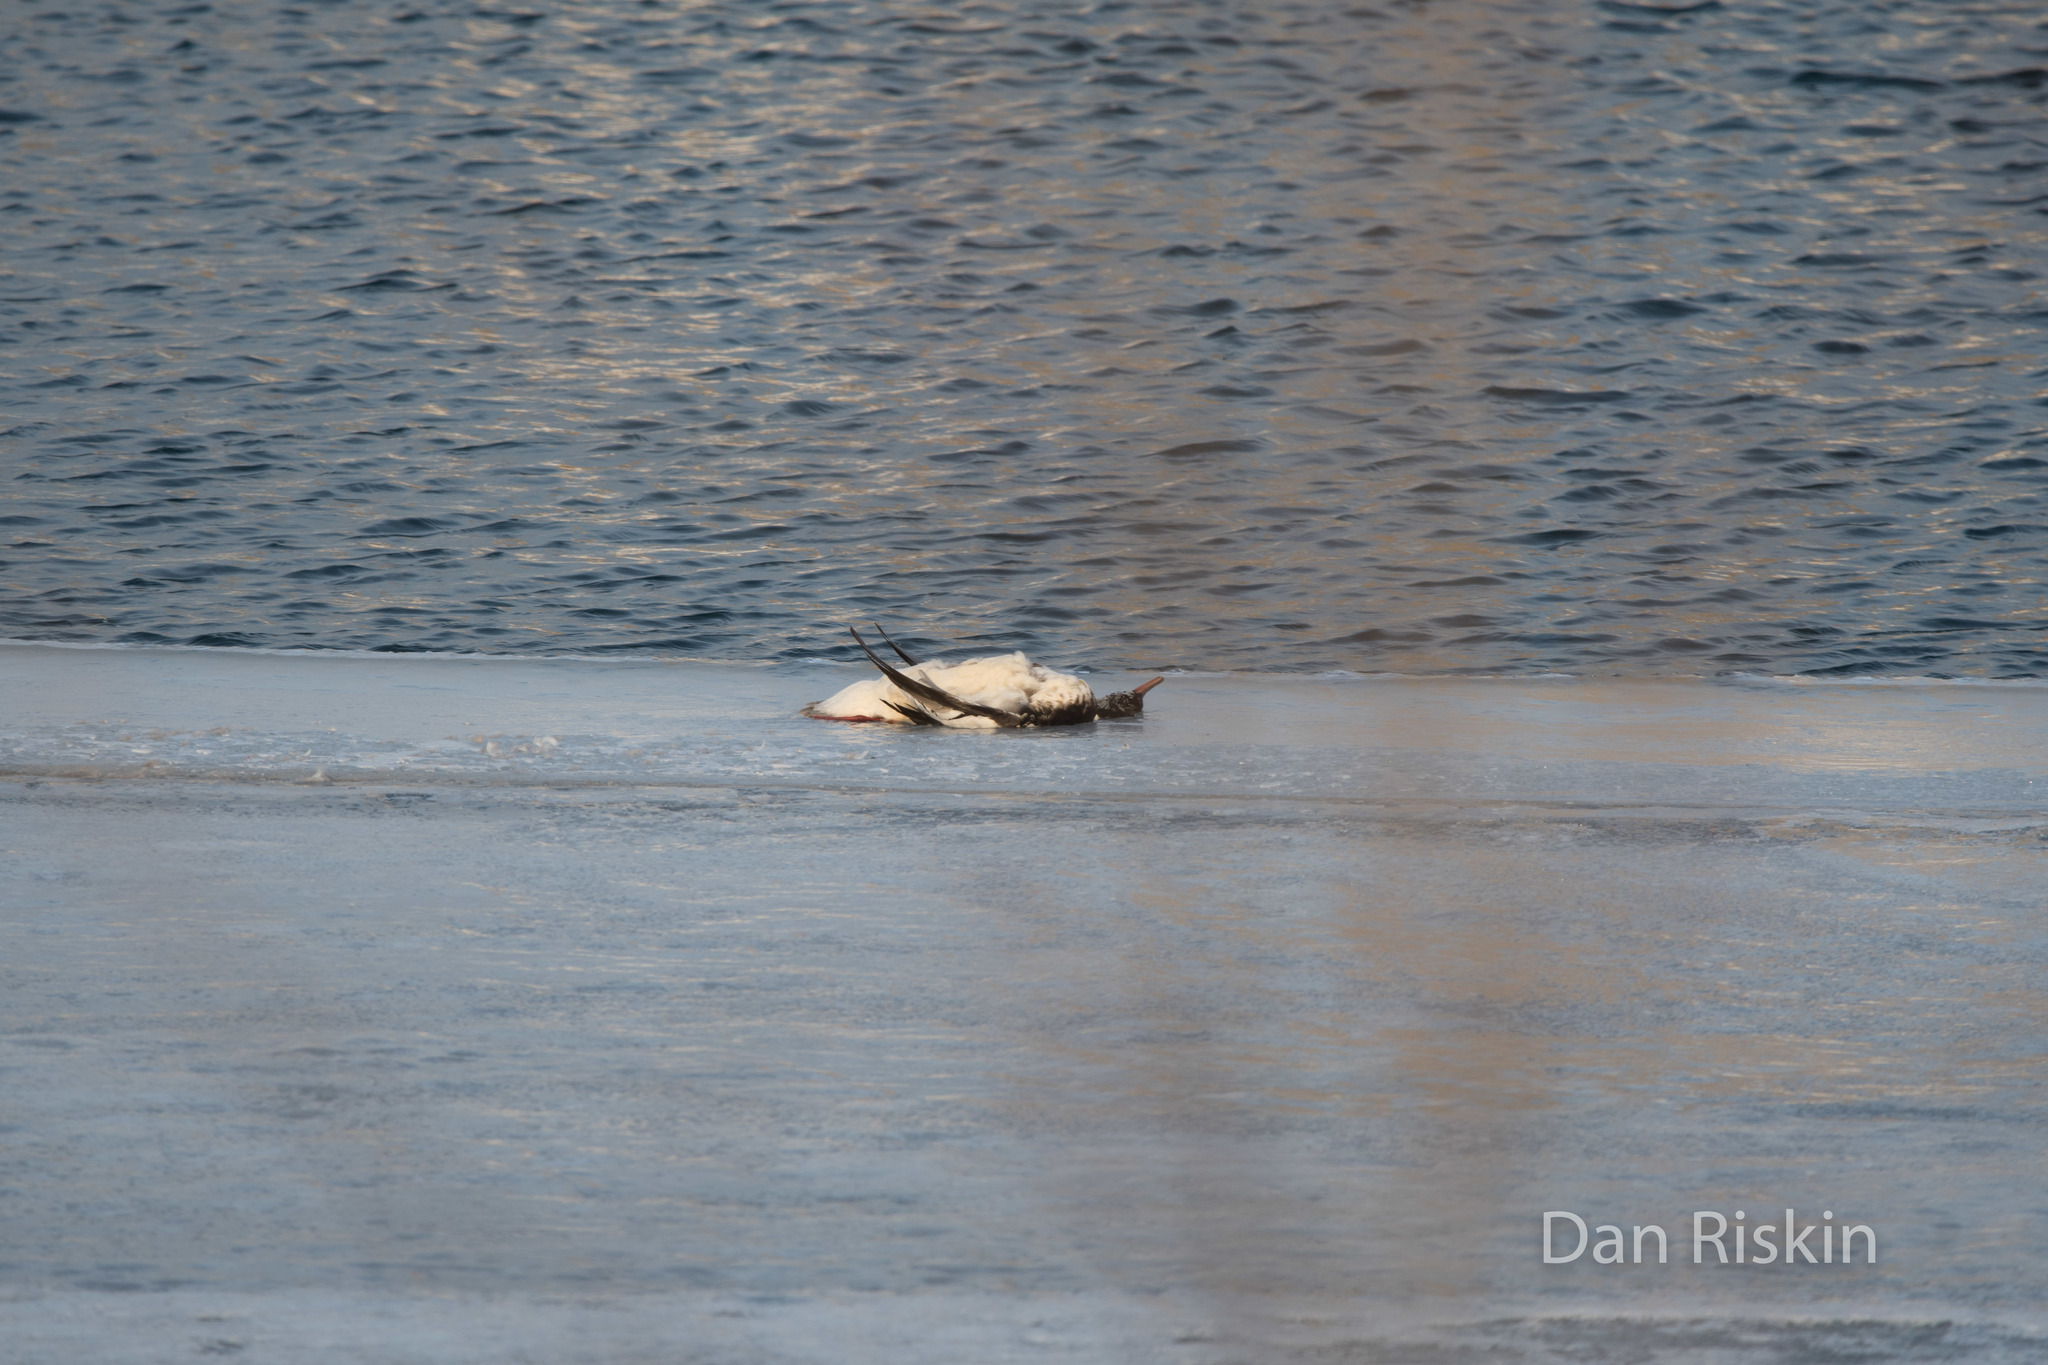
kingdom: Animalia
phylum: Chordata
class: Aves
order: Anseriformes
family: Anatidae
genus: Mergus
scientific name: Mergus serrator
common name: Red-breasted merganser
